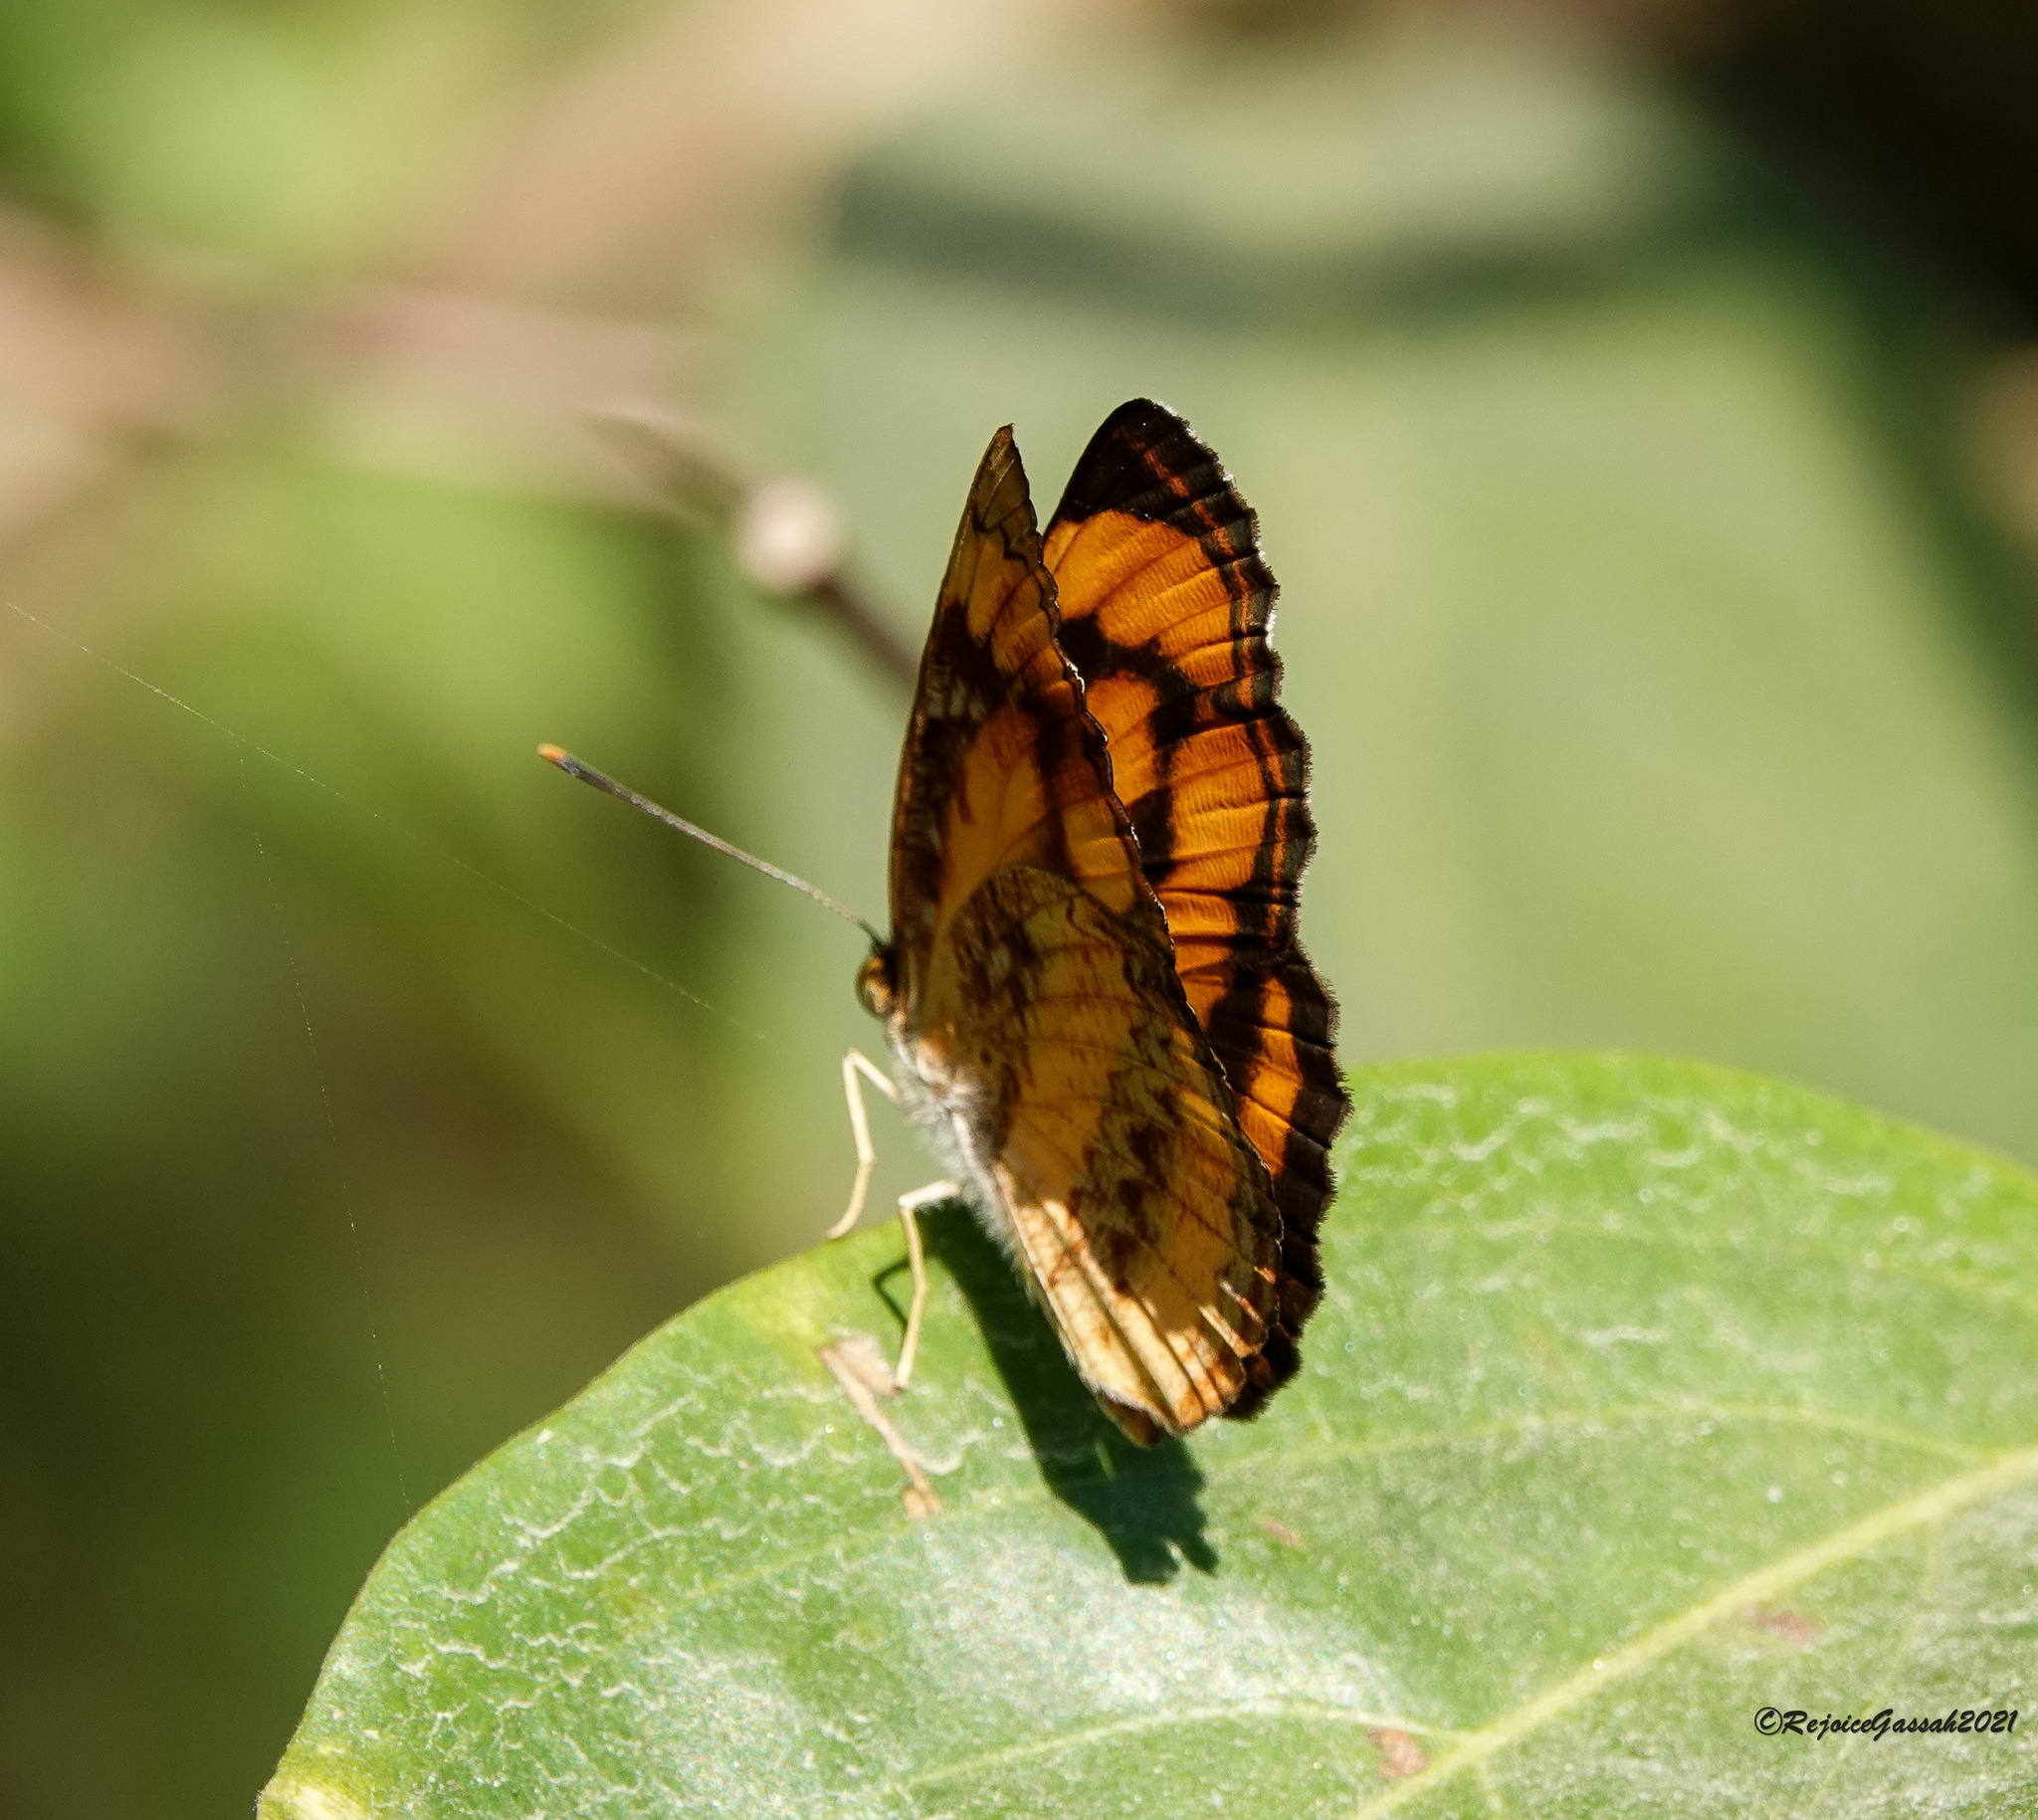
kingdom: Animalia
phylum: Arthropoda
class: Insecta
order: Lepidoptera
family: Nymphalidae
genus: Pantoporia
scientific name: Pantoporia hordonia
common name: Common lascar
